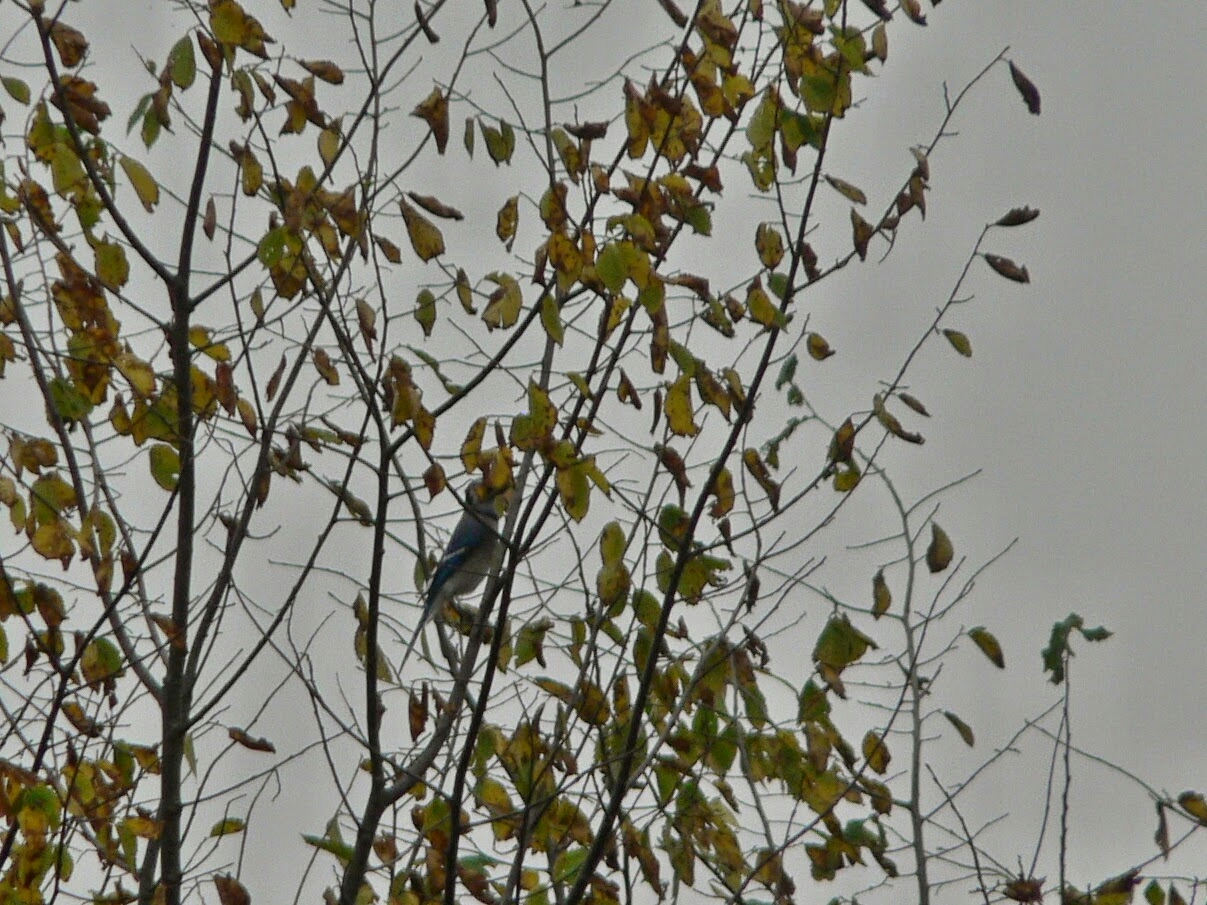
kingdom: Animalia
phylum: Chordata
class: Aves
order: Passeriformes
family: Corvidae
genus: Cyanocitta
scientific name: Cyanocitta cristata
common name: Blue jay
